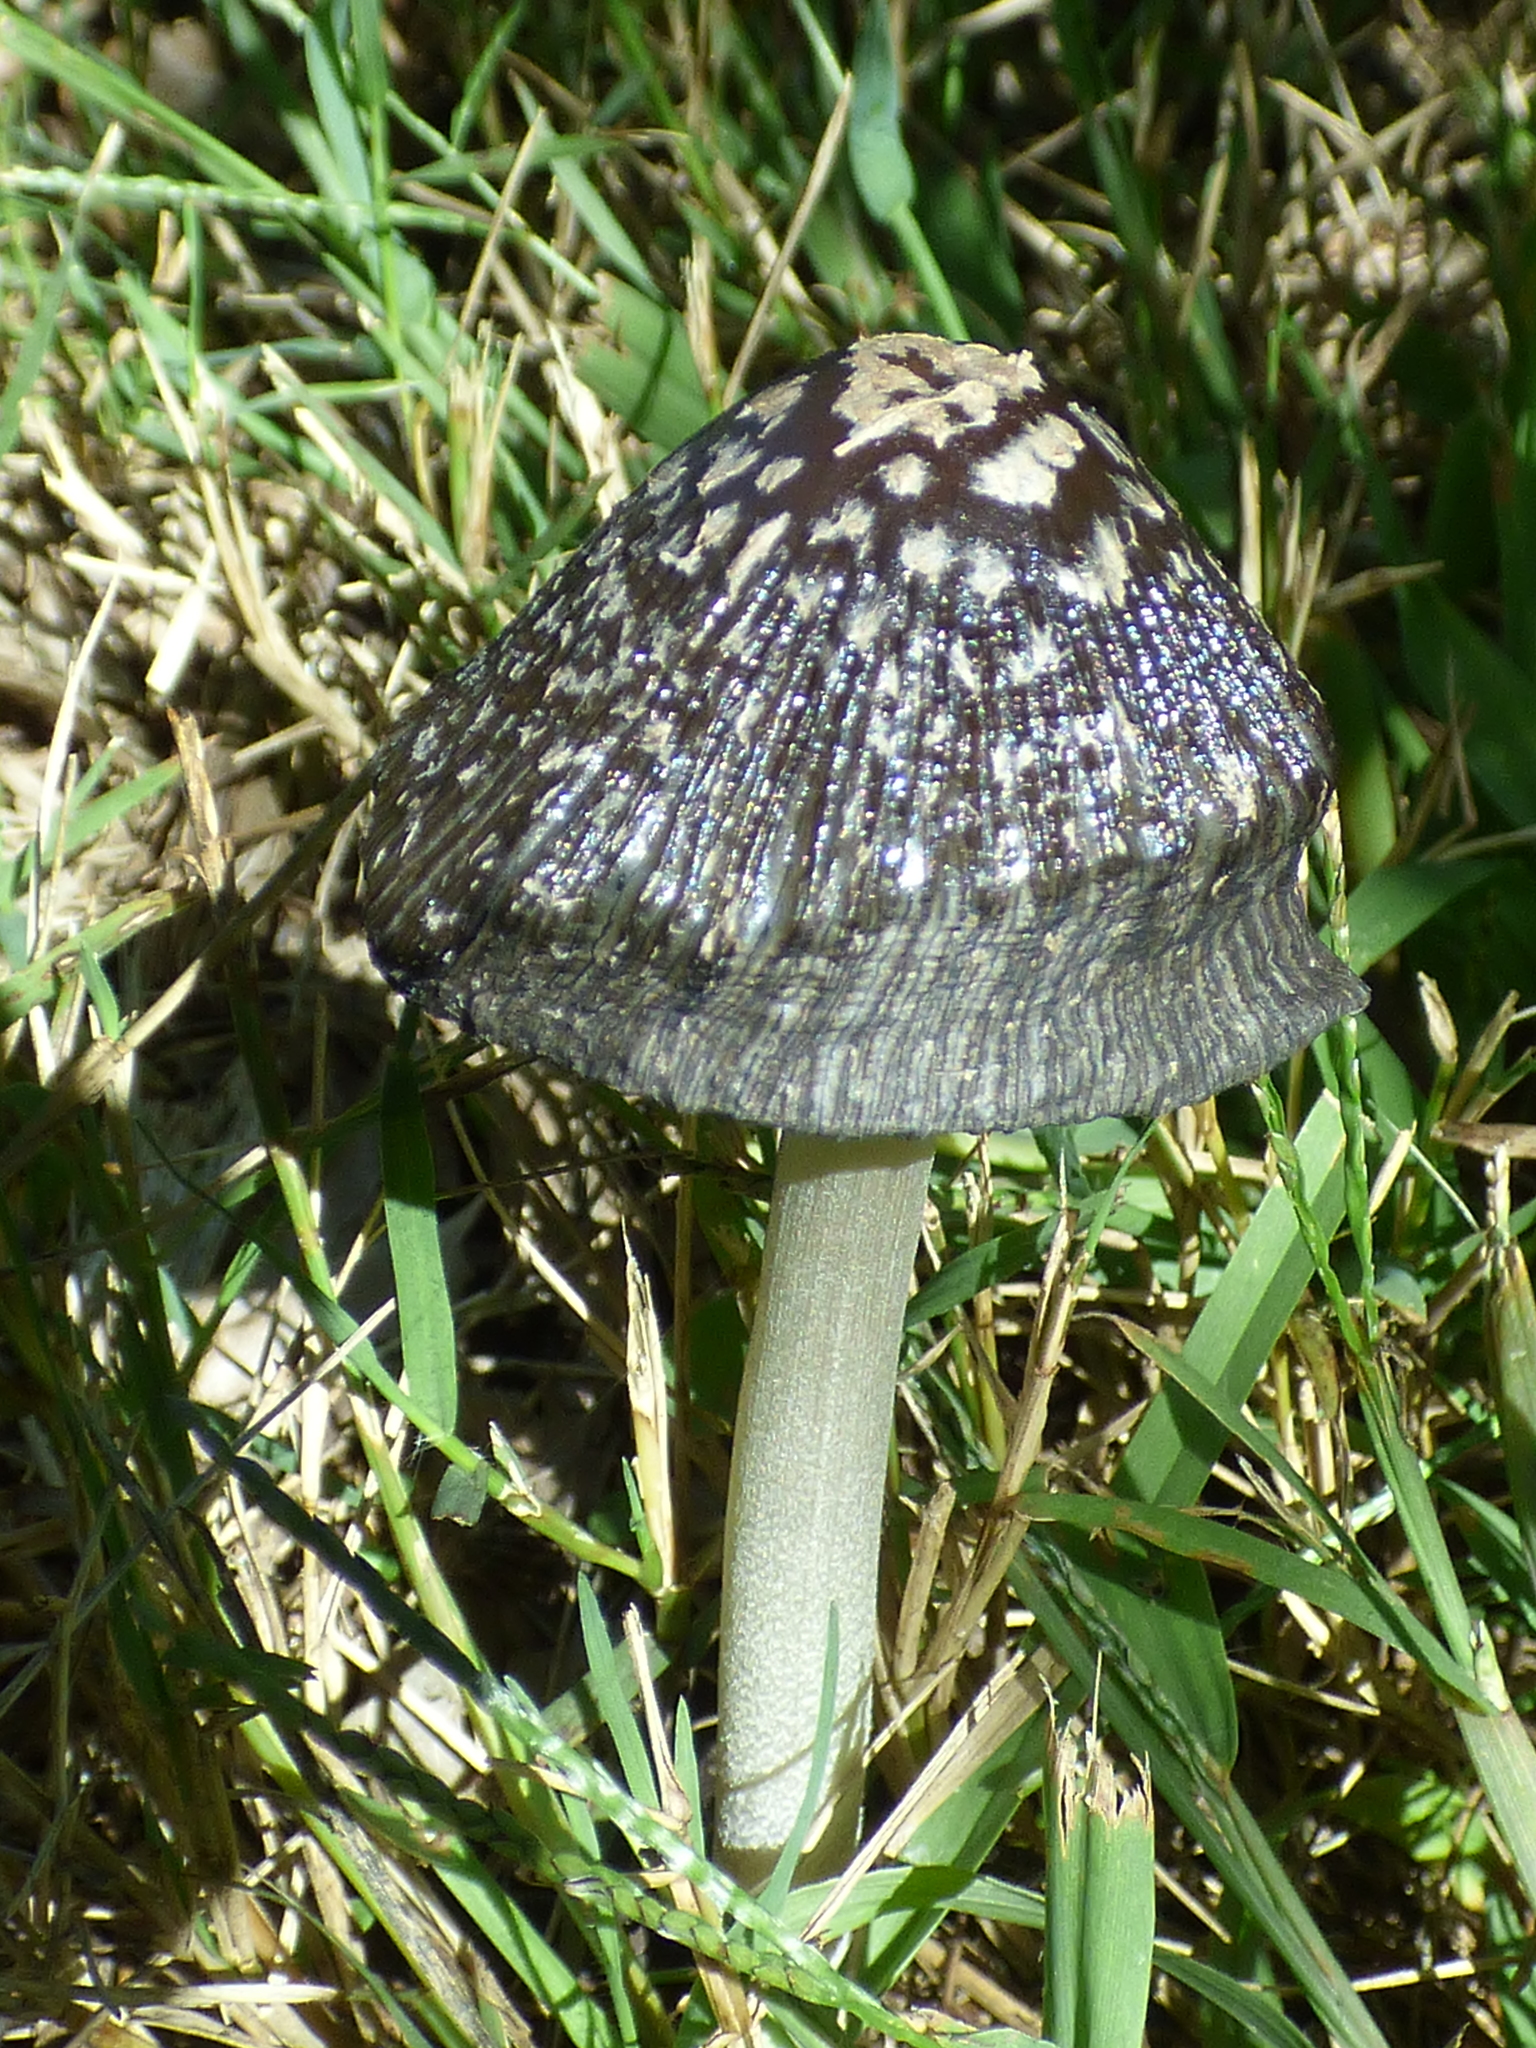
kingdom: Fungi
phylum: Basidiomycota
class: Agaricomycetes
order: Agaricales
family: Psathyrellaceae
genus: Coprinopsis
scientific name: Coprinopsis picacea
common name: Magpie inkcap
